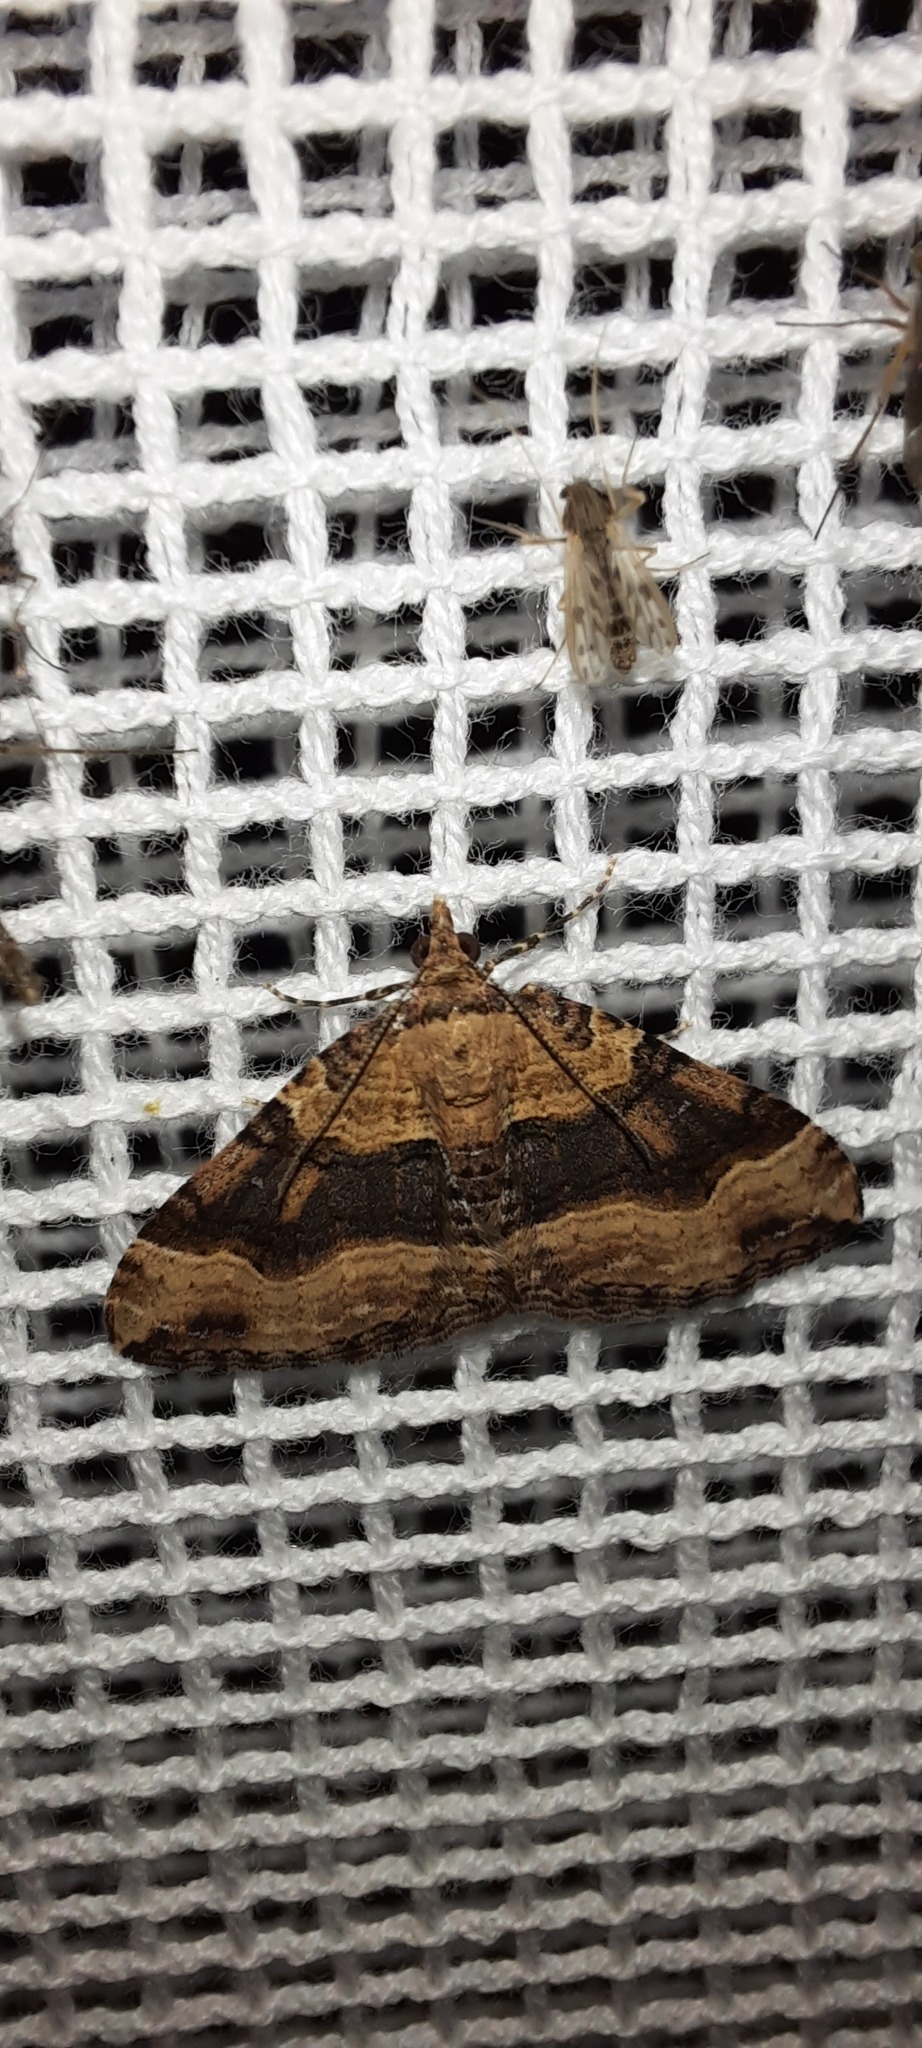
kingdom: Animalia
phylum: Arthropoda
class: Insecta
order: Lepidoptera
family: Geometridae
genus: Epyaxa
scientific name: Epyaxa subidaria
